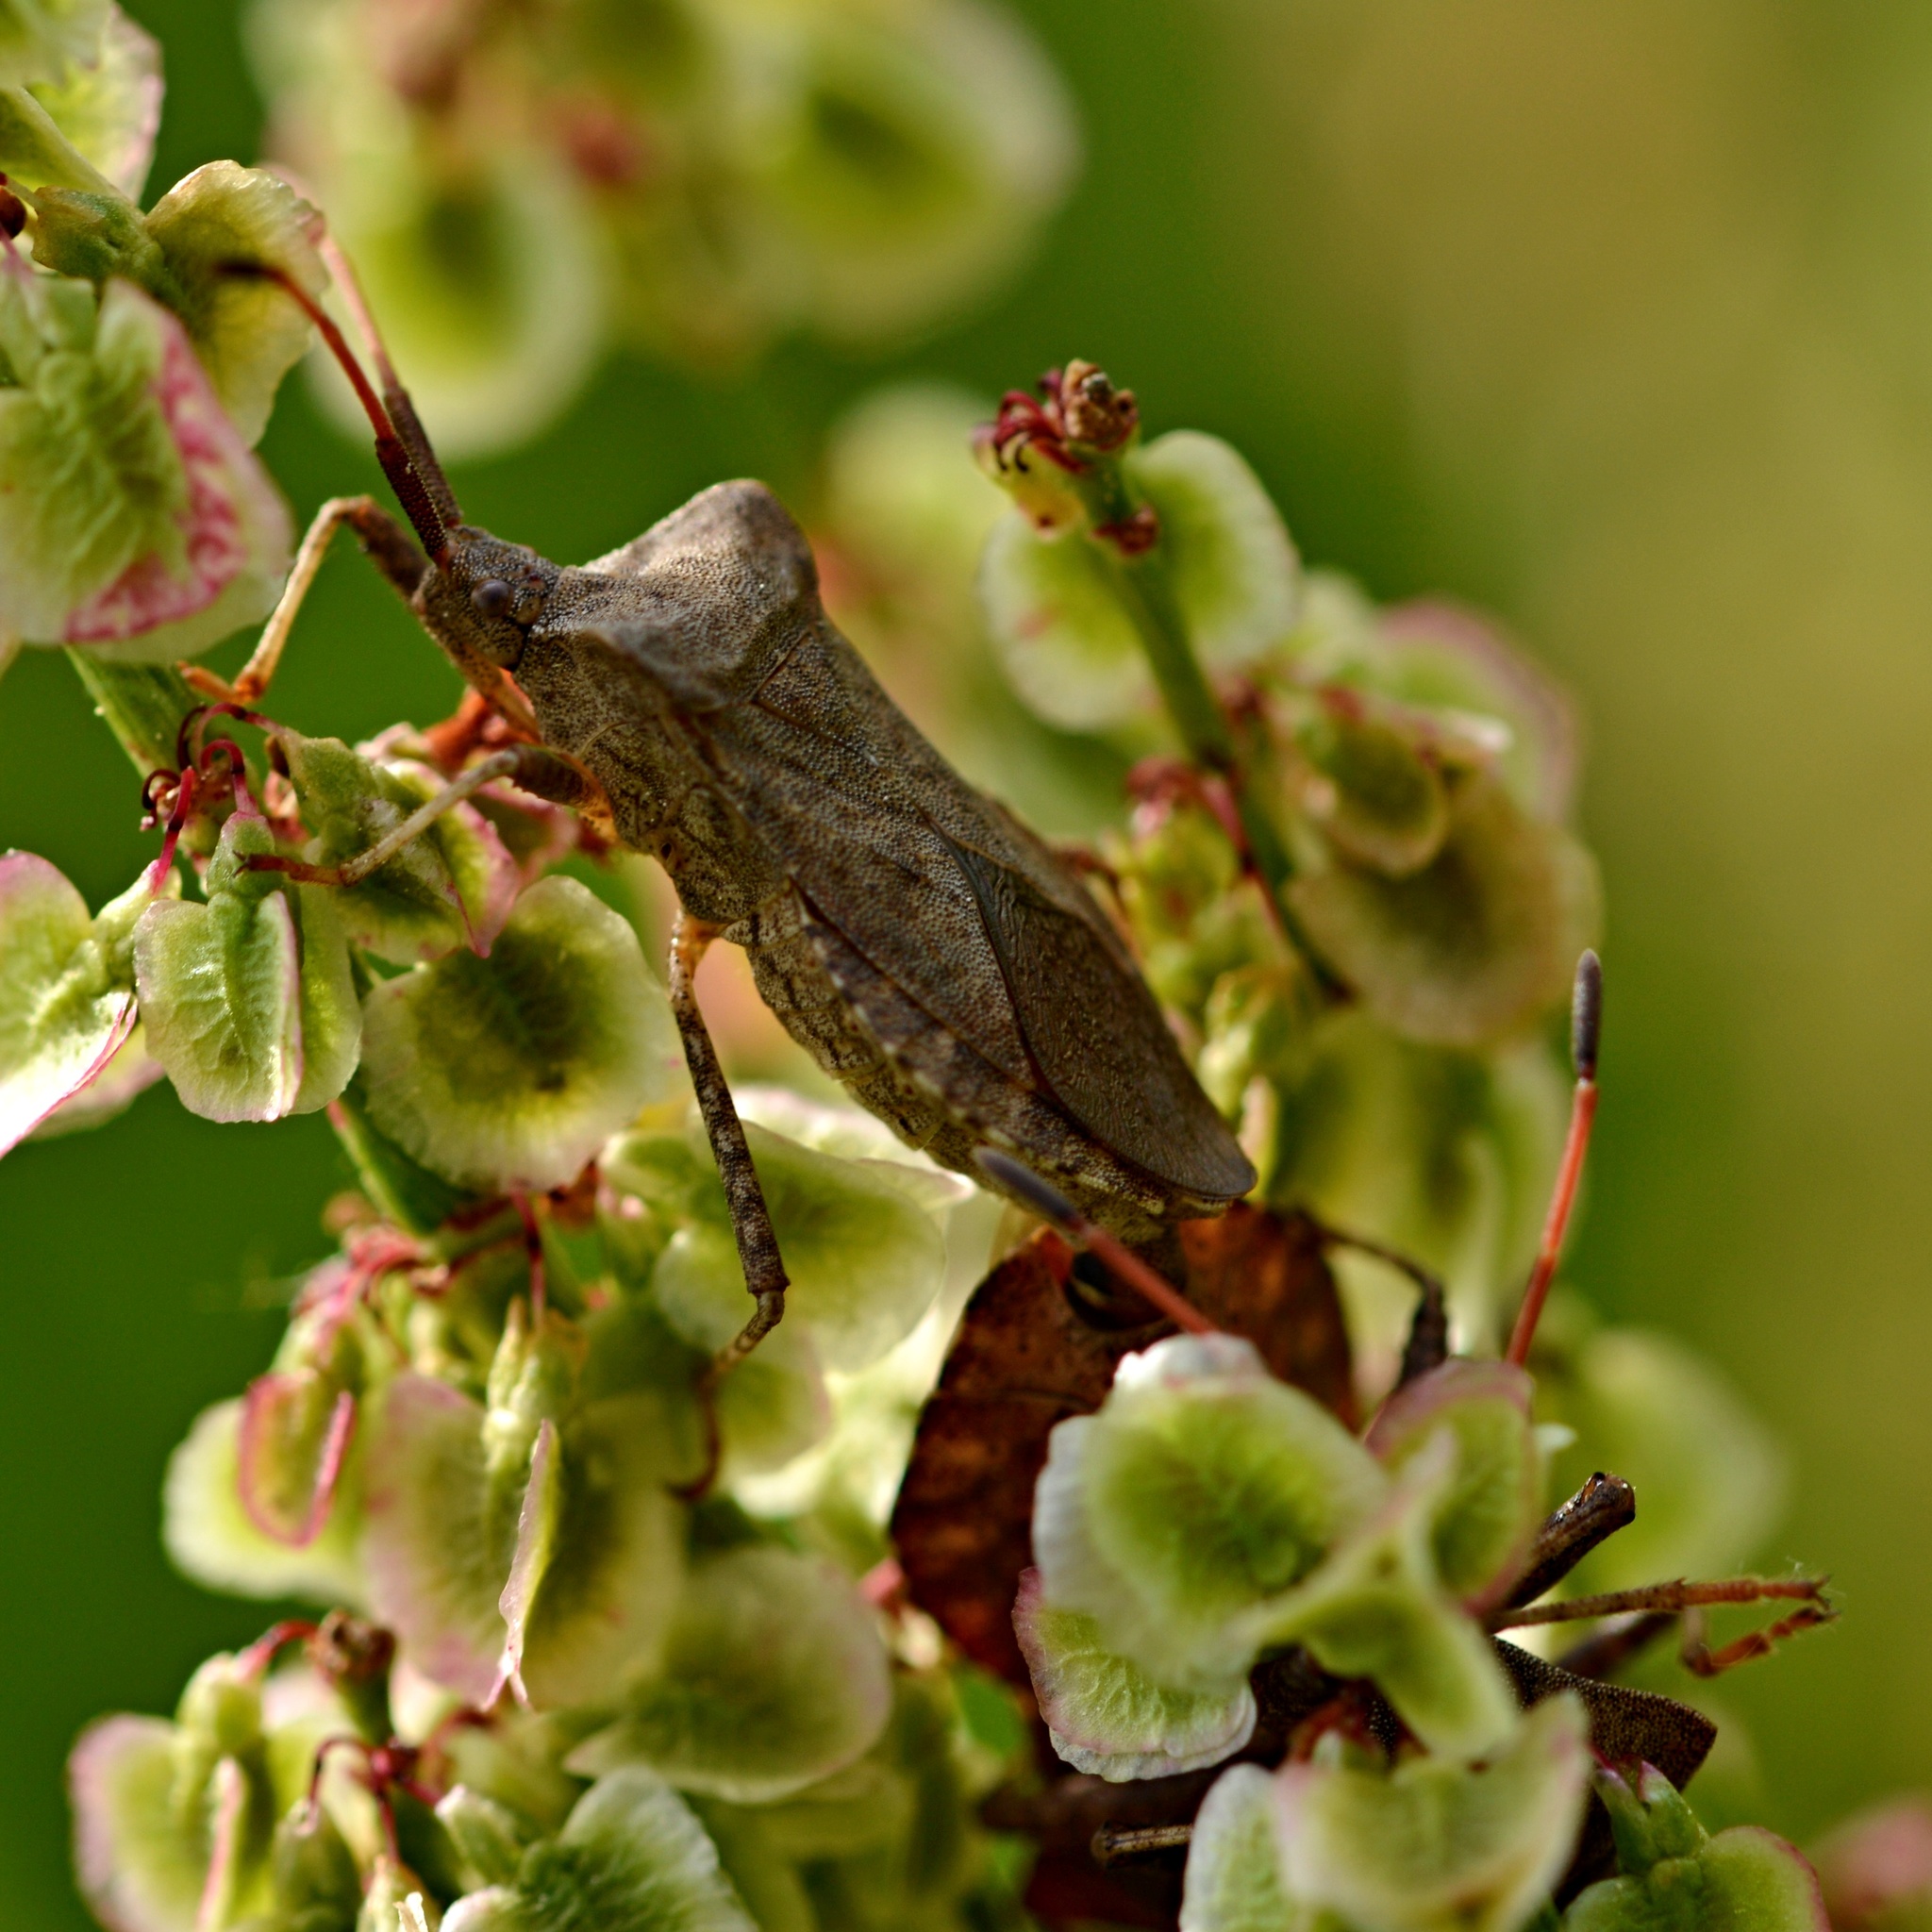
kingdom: Animalia
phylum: Arthropoda
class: Insecta
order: Hemiptera
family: Coreidae
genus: Coreus
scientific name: Coreus marginatus
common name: Dock bug
